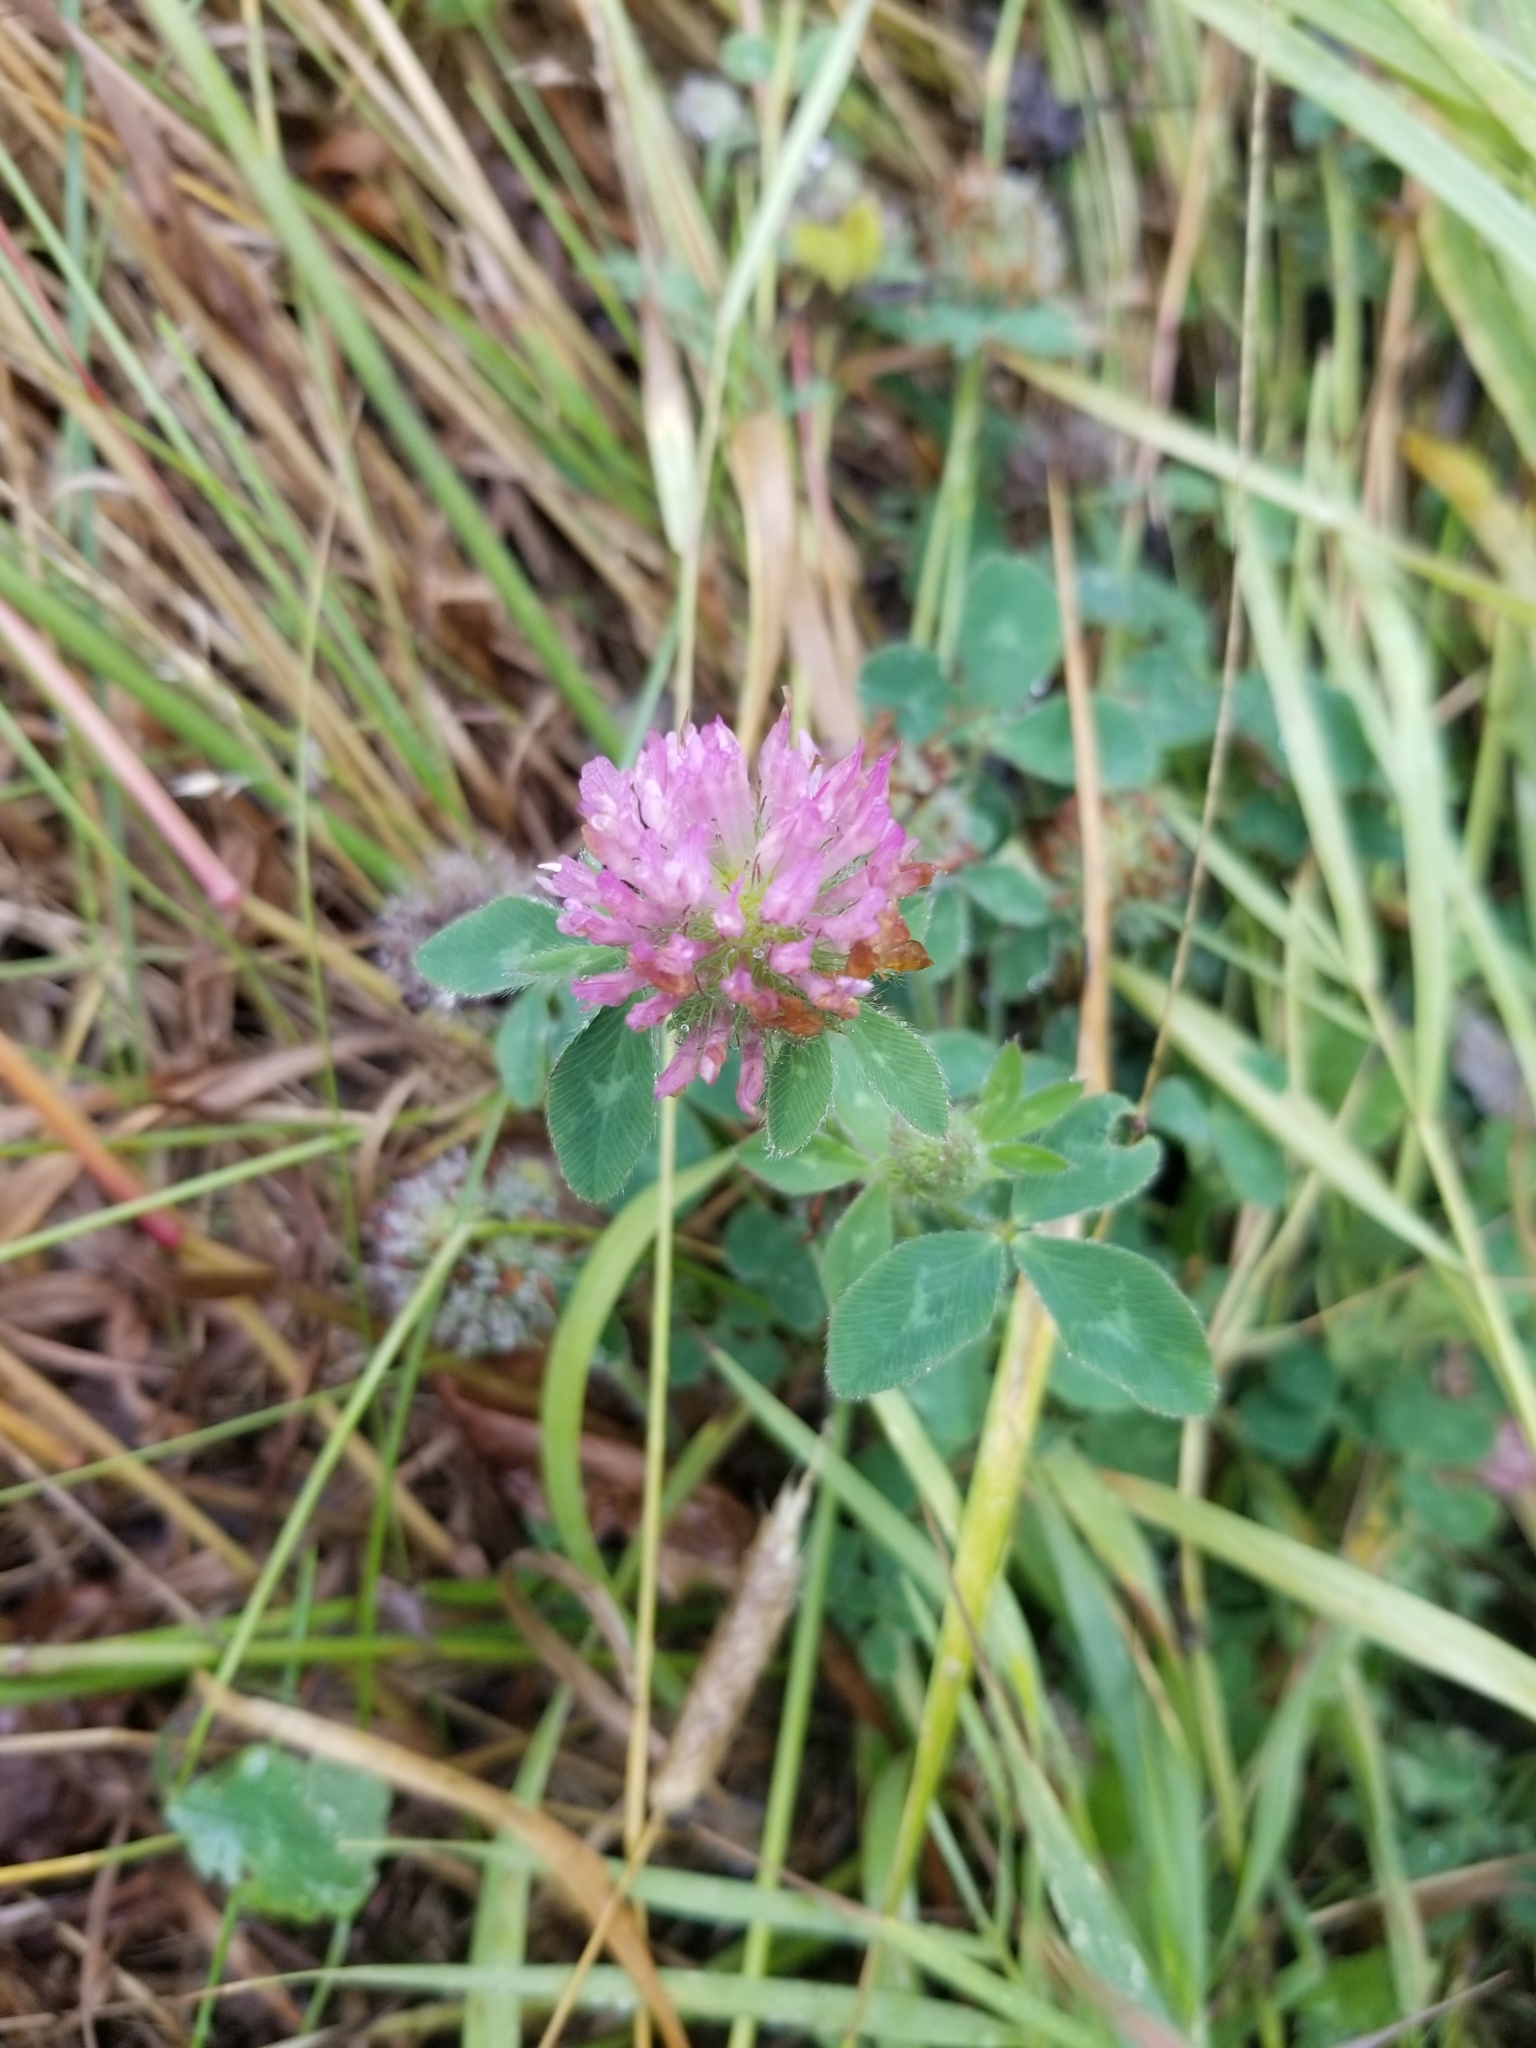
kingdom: Plantae
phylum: Tracheophyta
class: Magnoliopsida
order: Fabales
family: Fabaceae
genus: Trifolium
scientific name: Trifolium pratense
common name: Red clover
